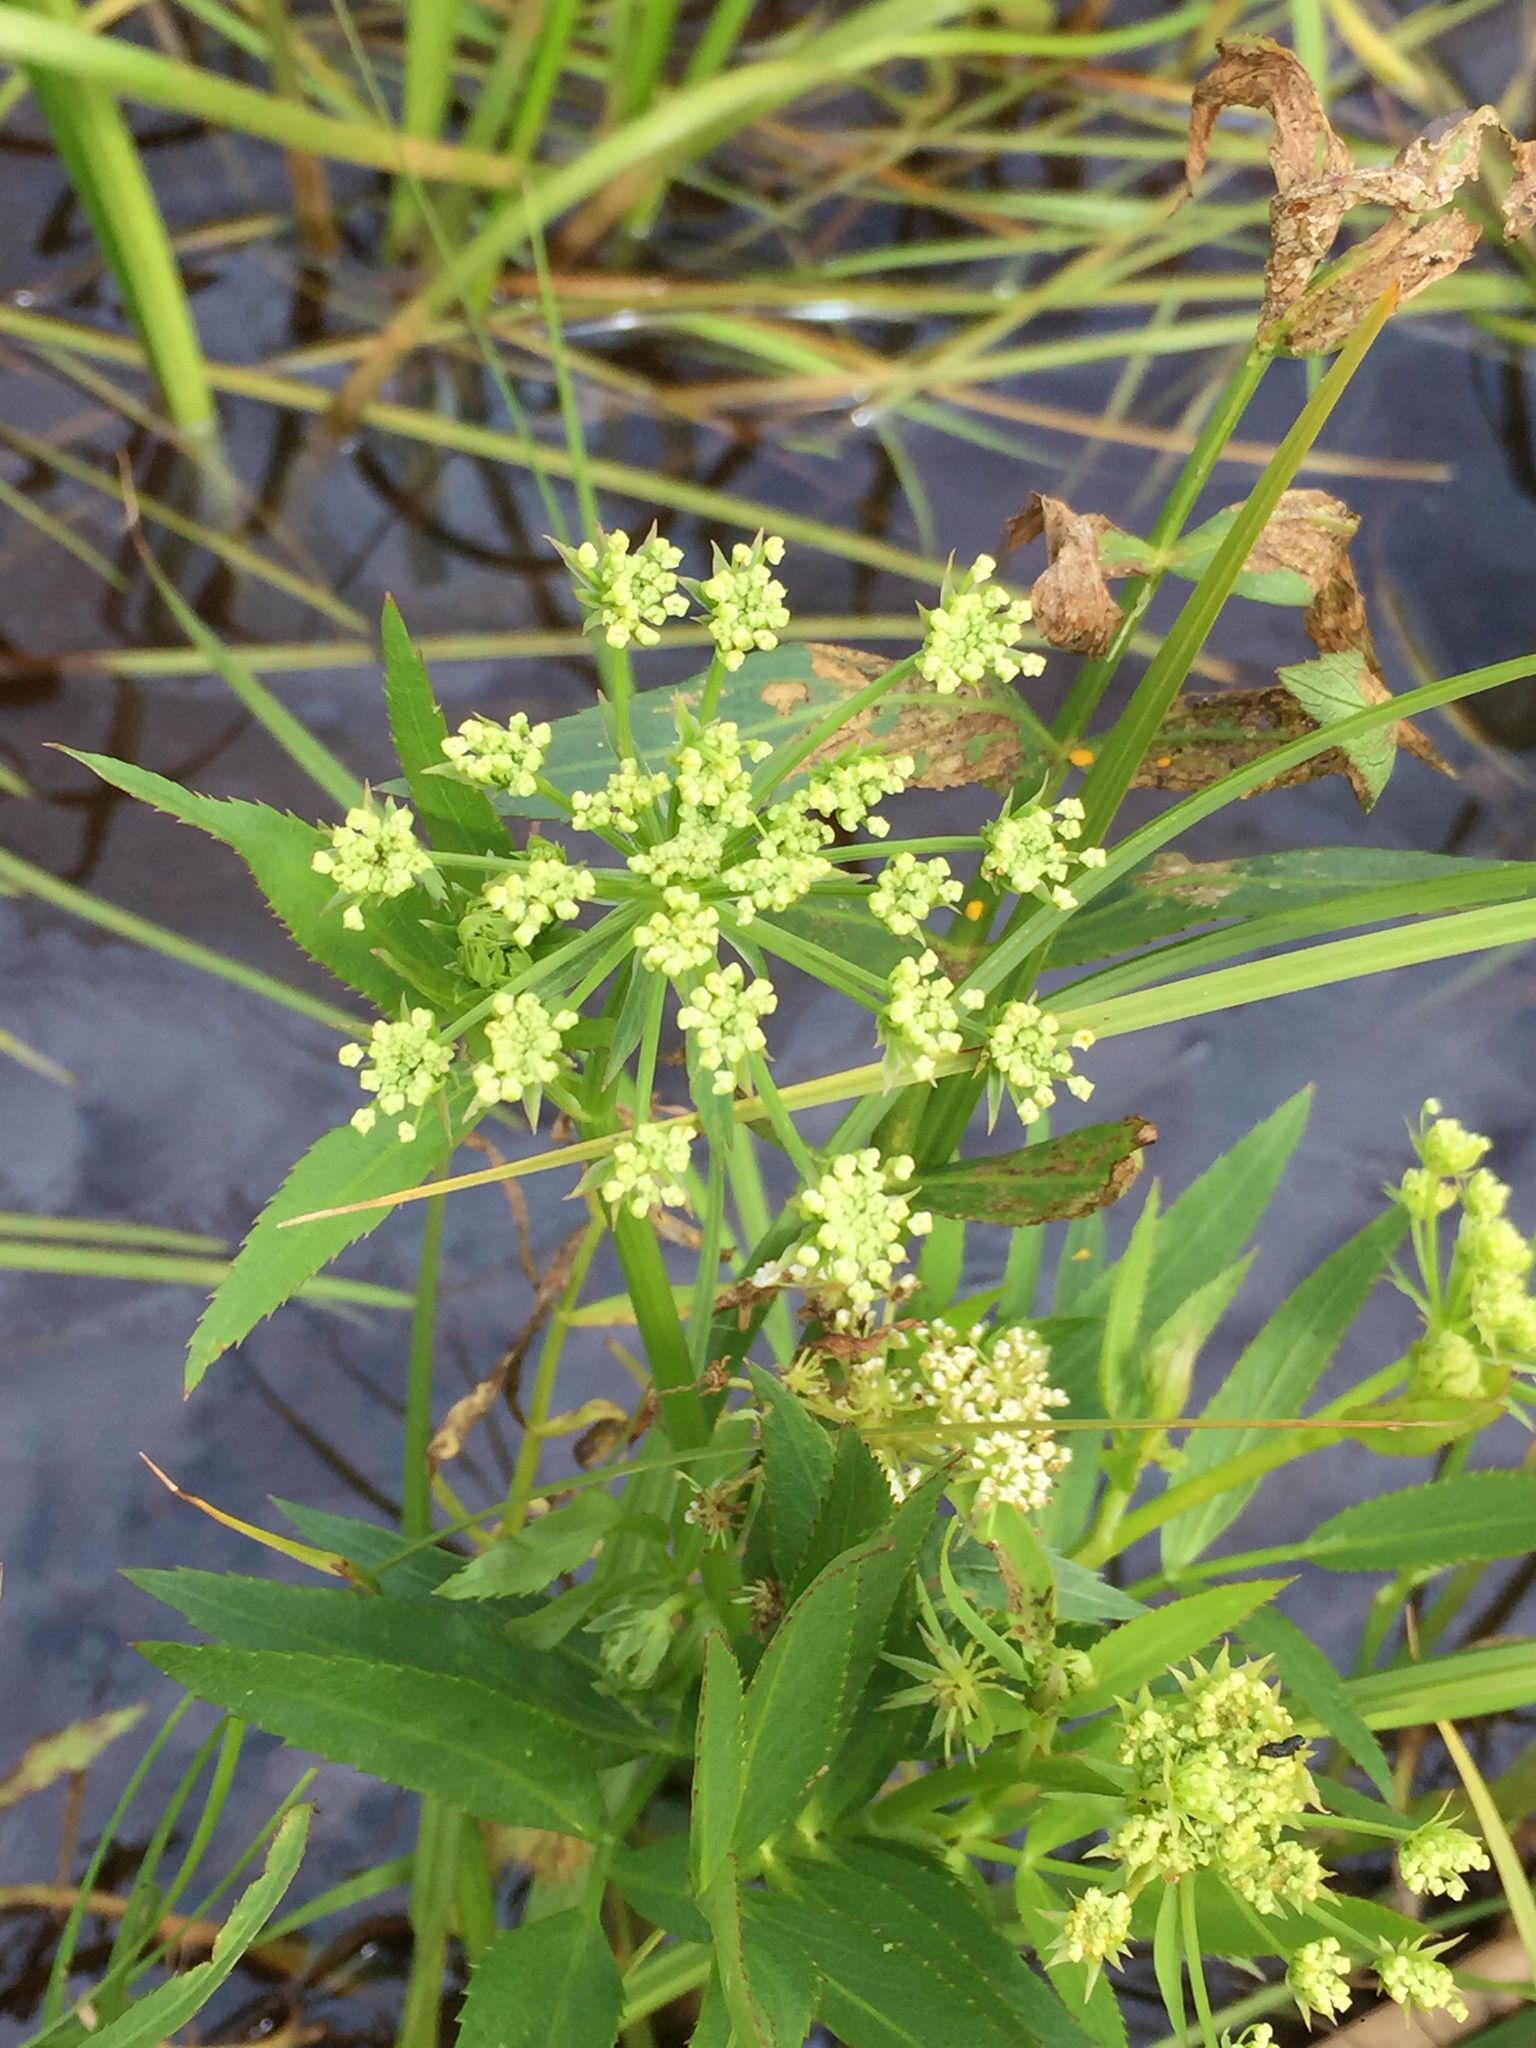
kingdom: Plantae
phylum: Tracheophyta
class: Magnoliopsida
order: Apiales
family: Apiaceae
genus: Sium
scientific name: Sium suave
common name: Hemlock water-parsnip
